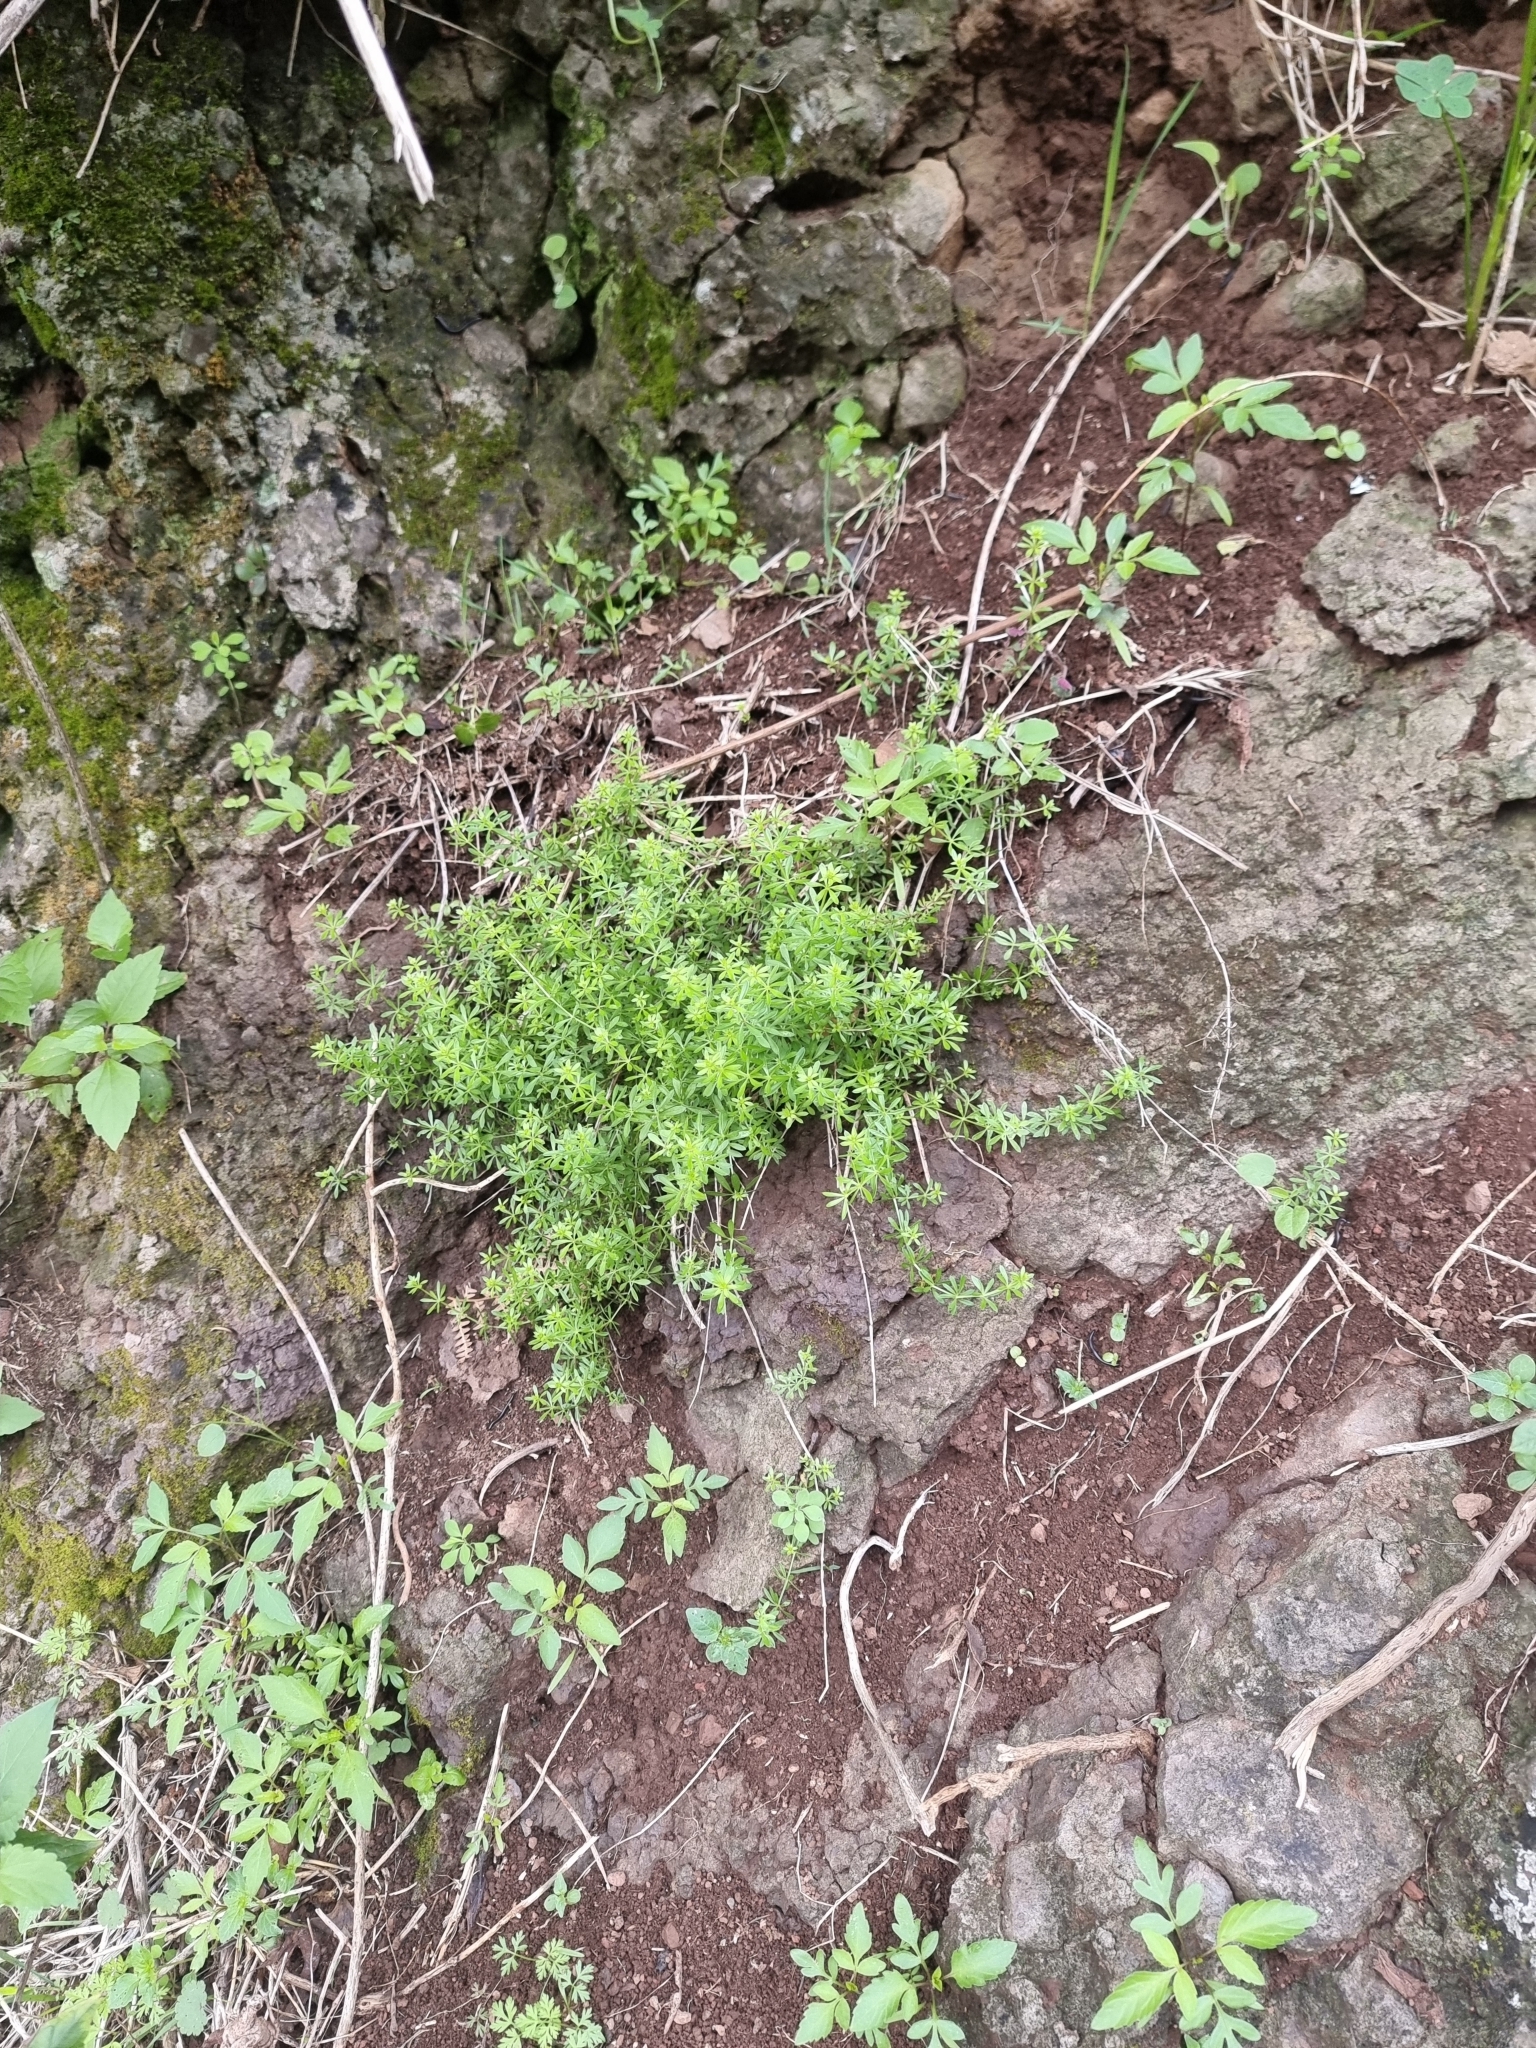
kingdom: Plantae
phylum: Tracheophyta
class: Magnoliopsida
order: Gentianales
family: Rubiaceae
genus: Galium
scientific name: Galium productum
